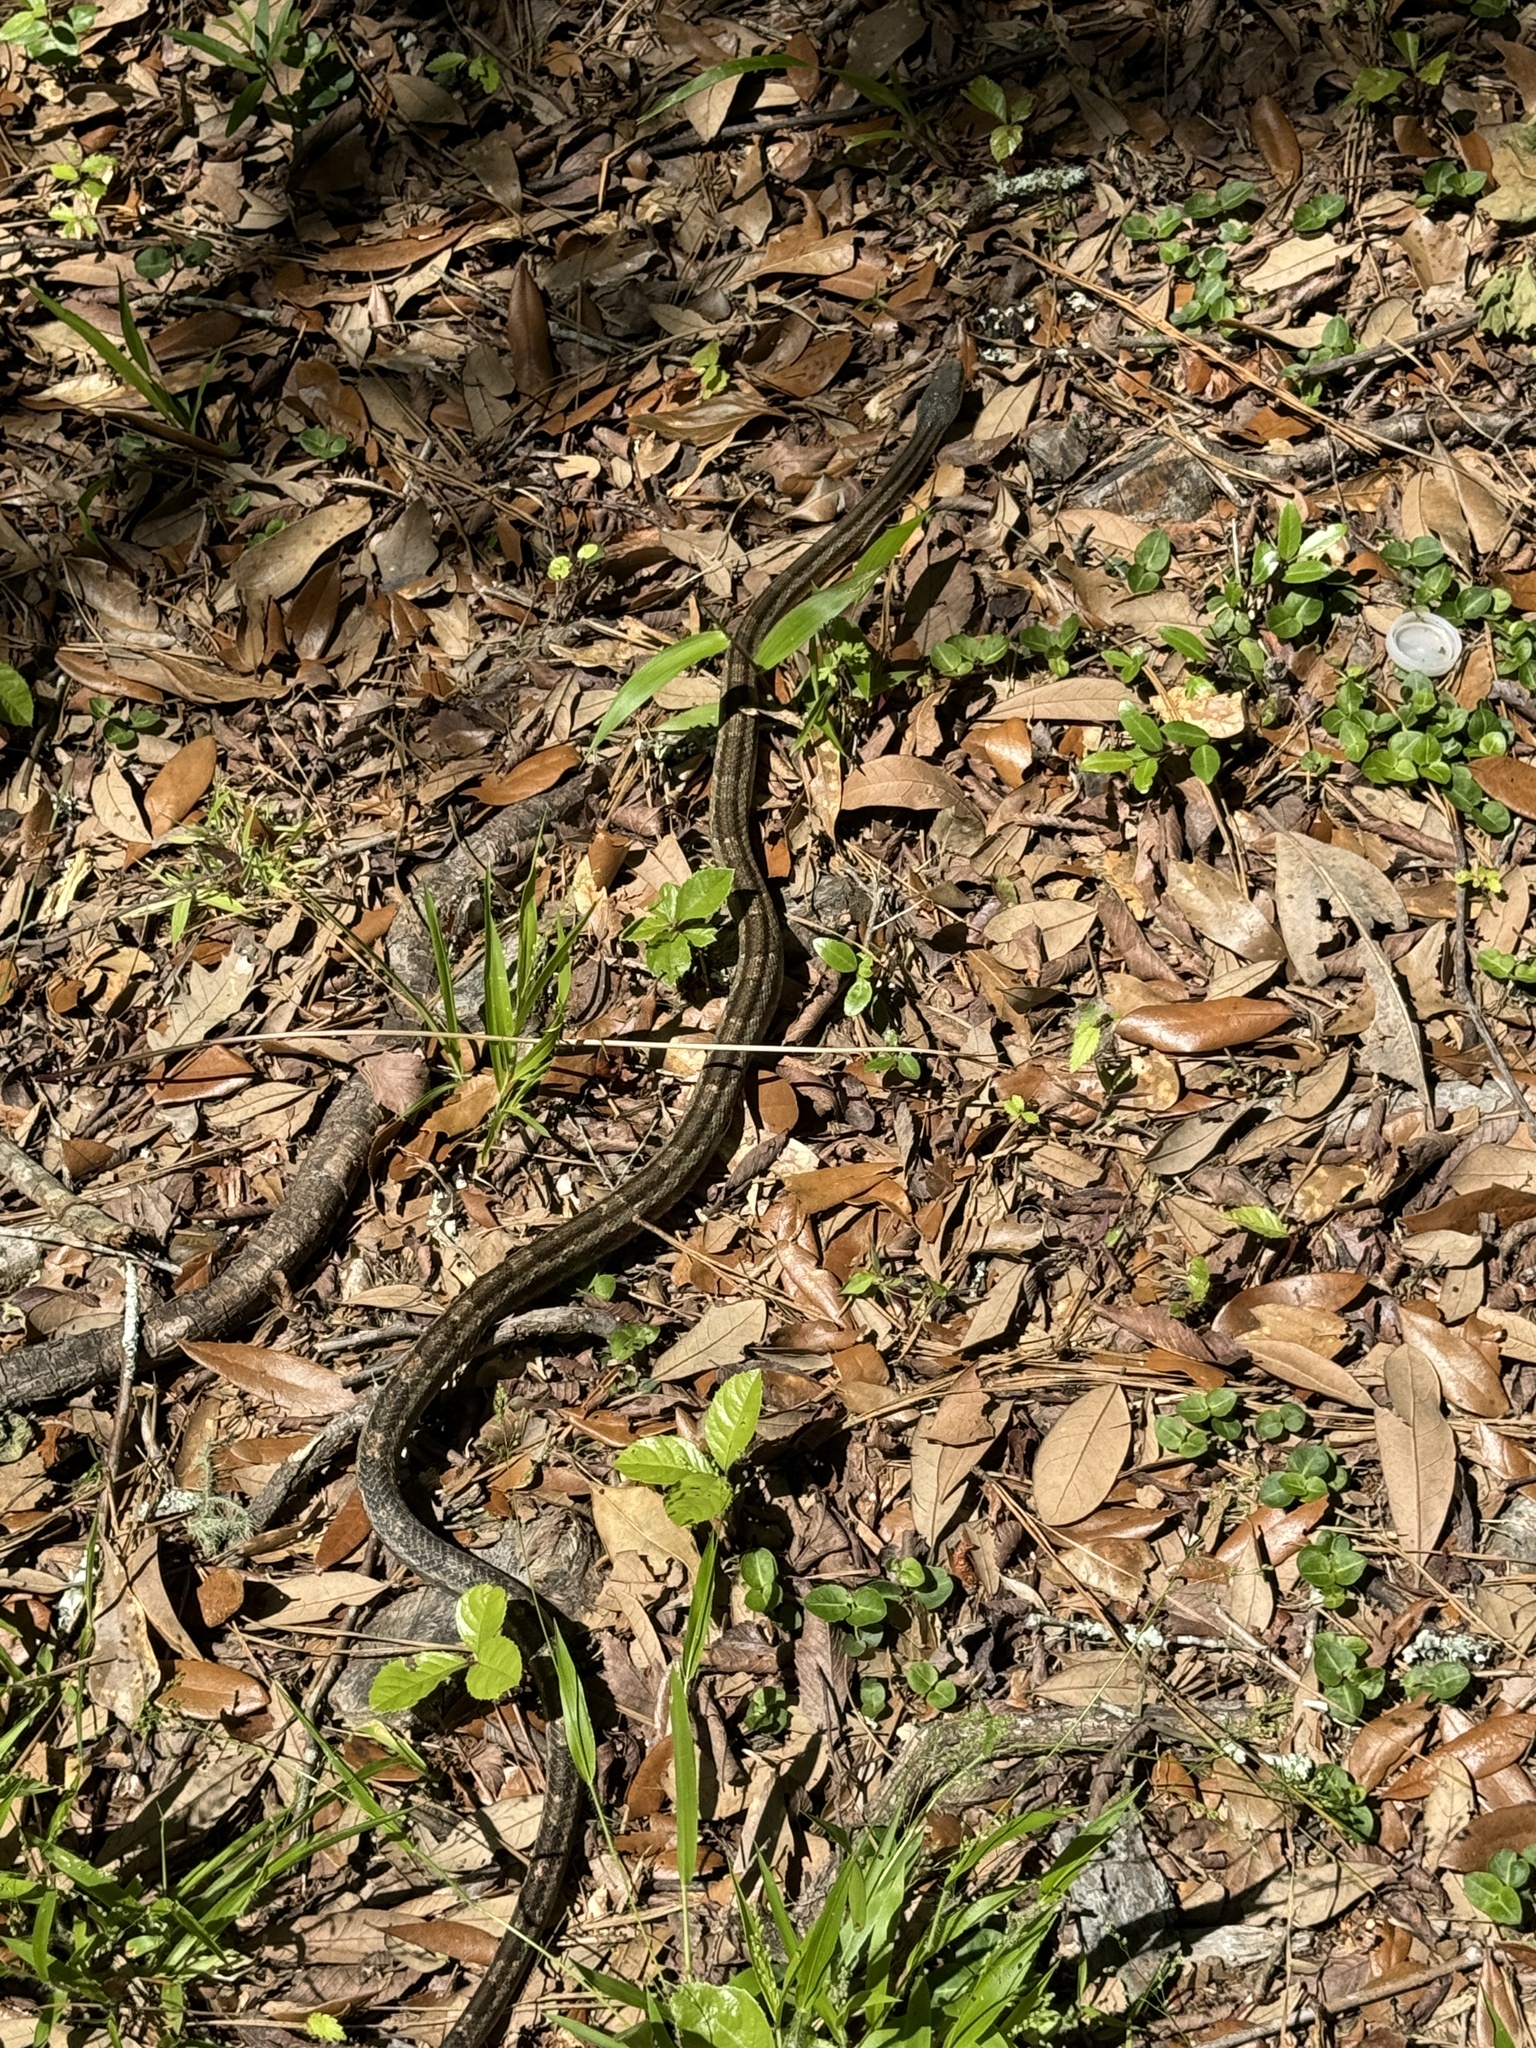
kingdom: Animalia
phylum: Chordata
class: Squamata
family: Colubridae
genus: Pantherophis
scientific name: Pantherophis spiloides
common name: Gray rat snake
